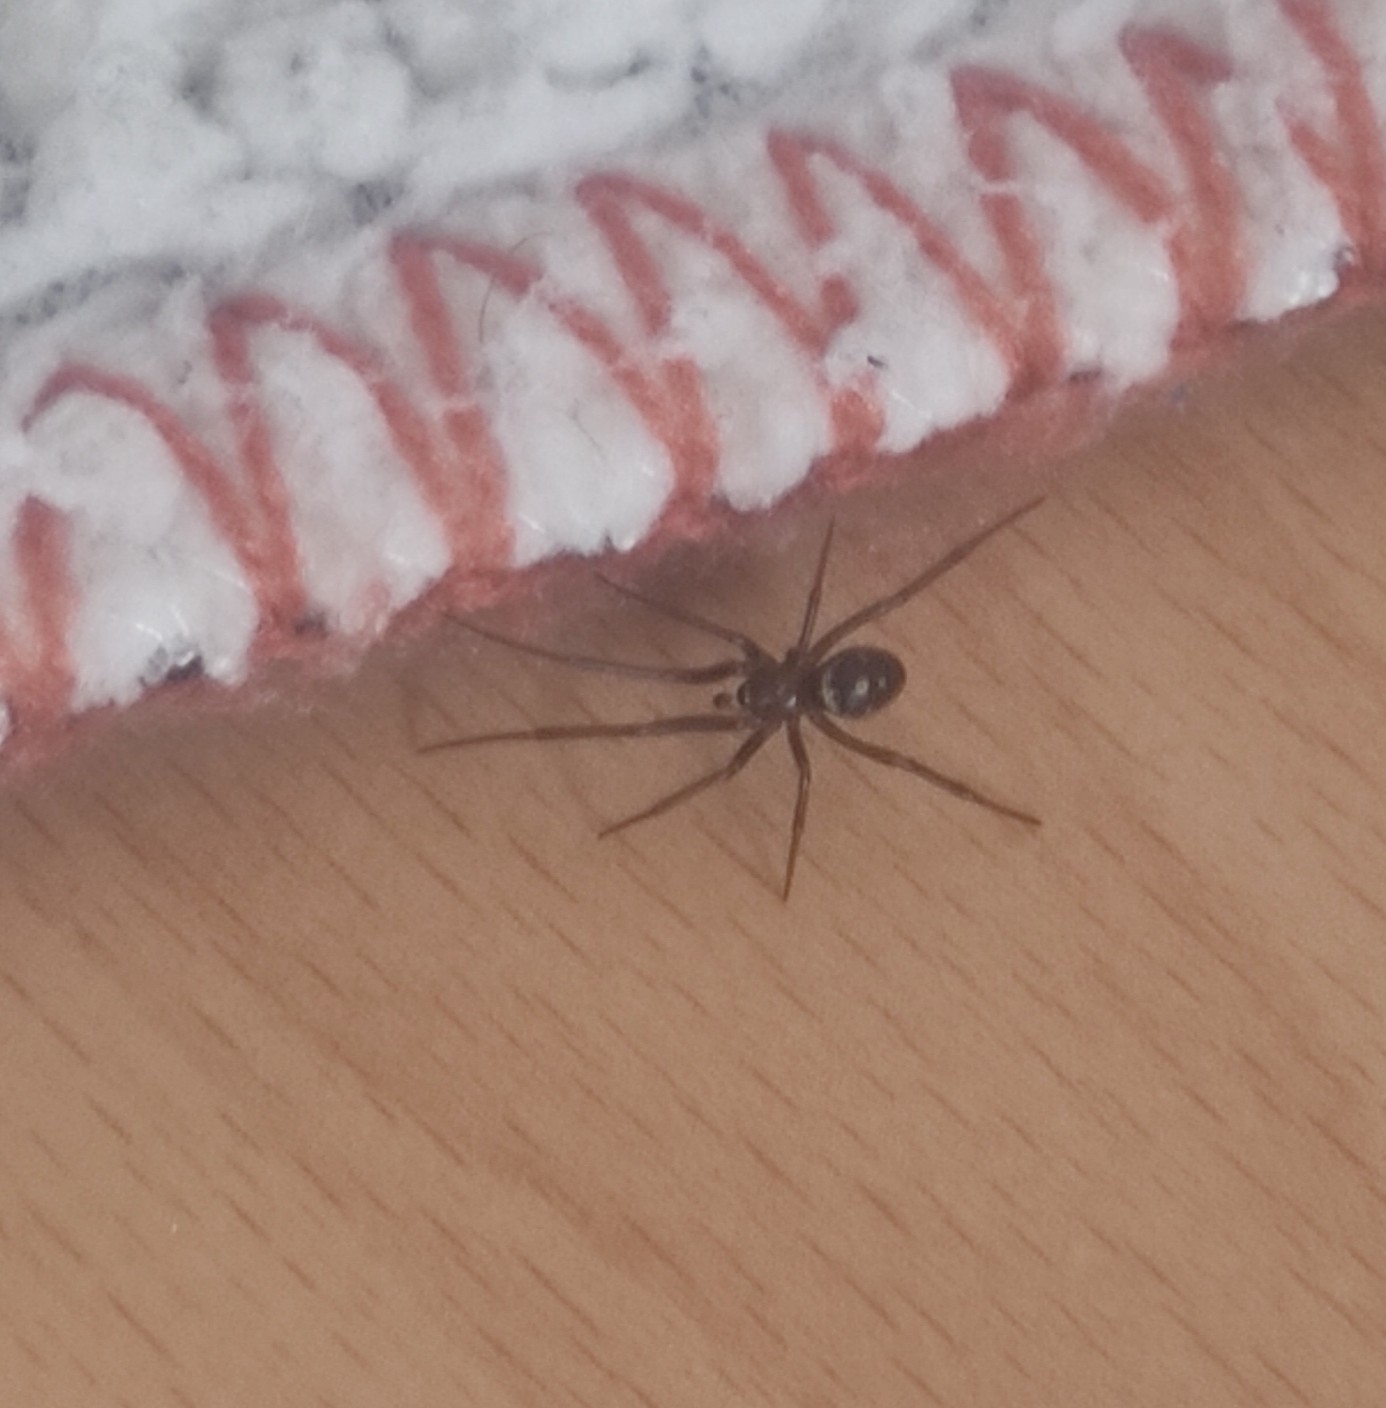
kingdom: Animalia
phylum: Arthropoda
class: Arachnida
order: Araneae
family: Theridiidae
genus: Steatoda
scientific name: Steatoda grossa
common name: False black widow
